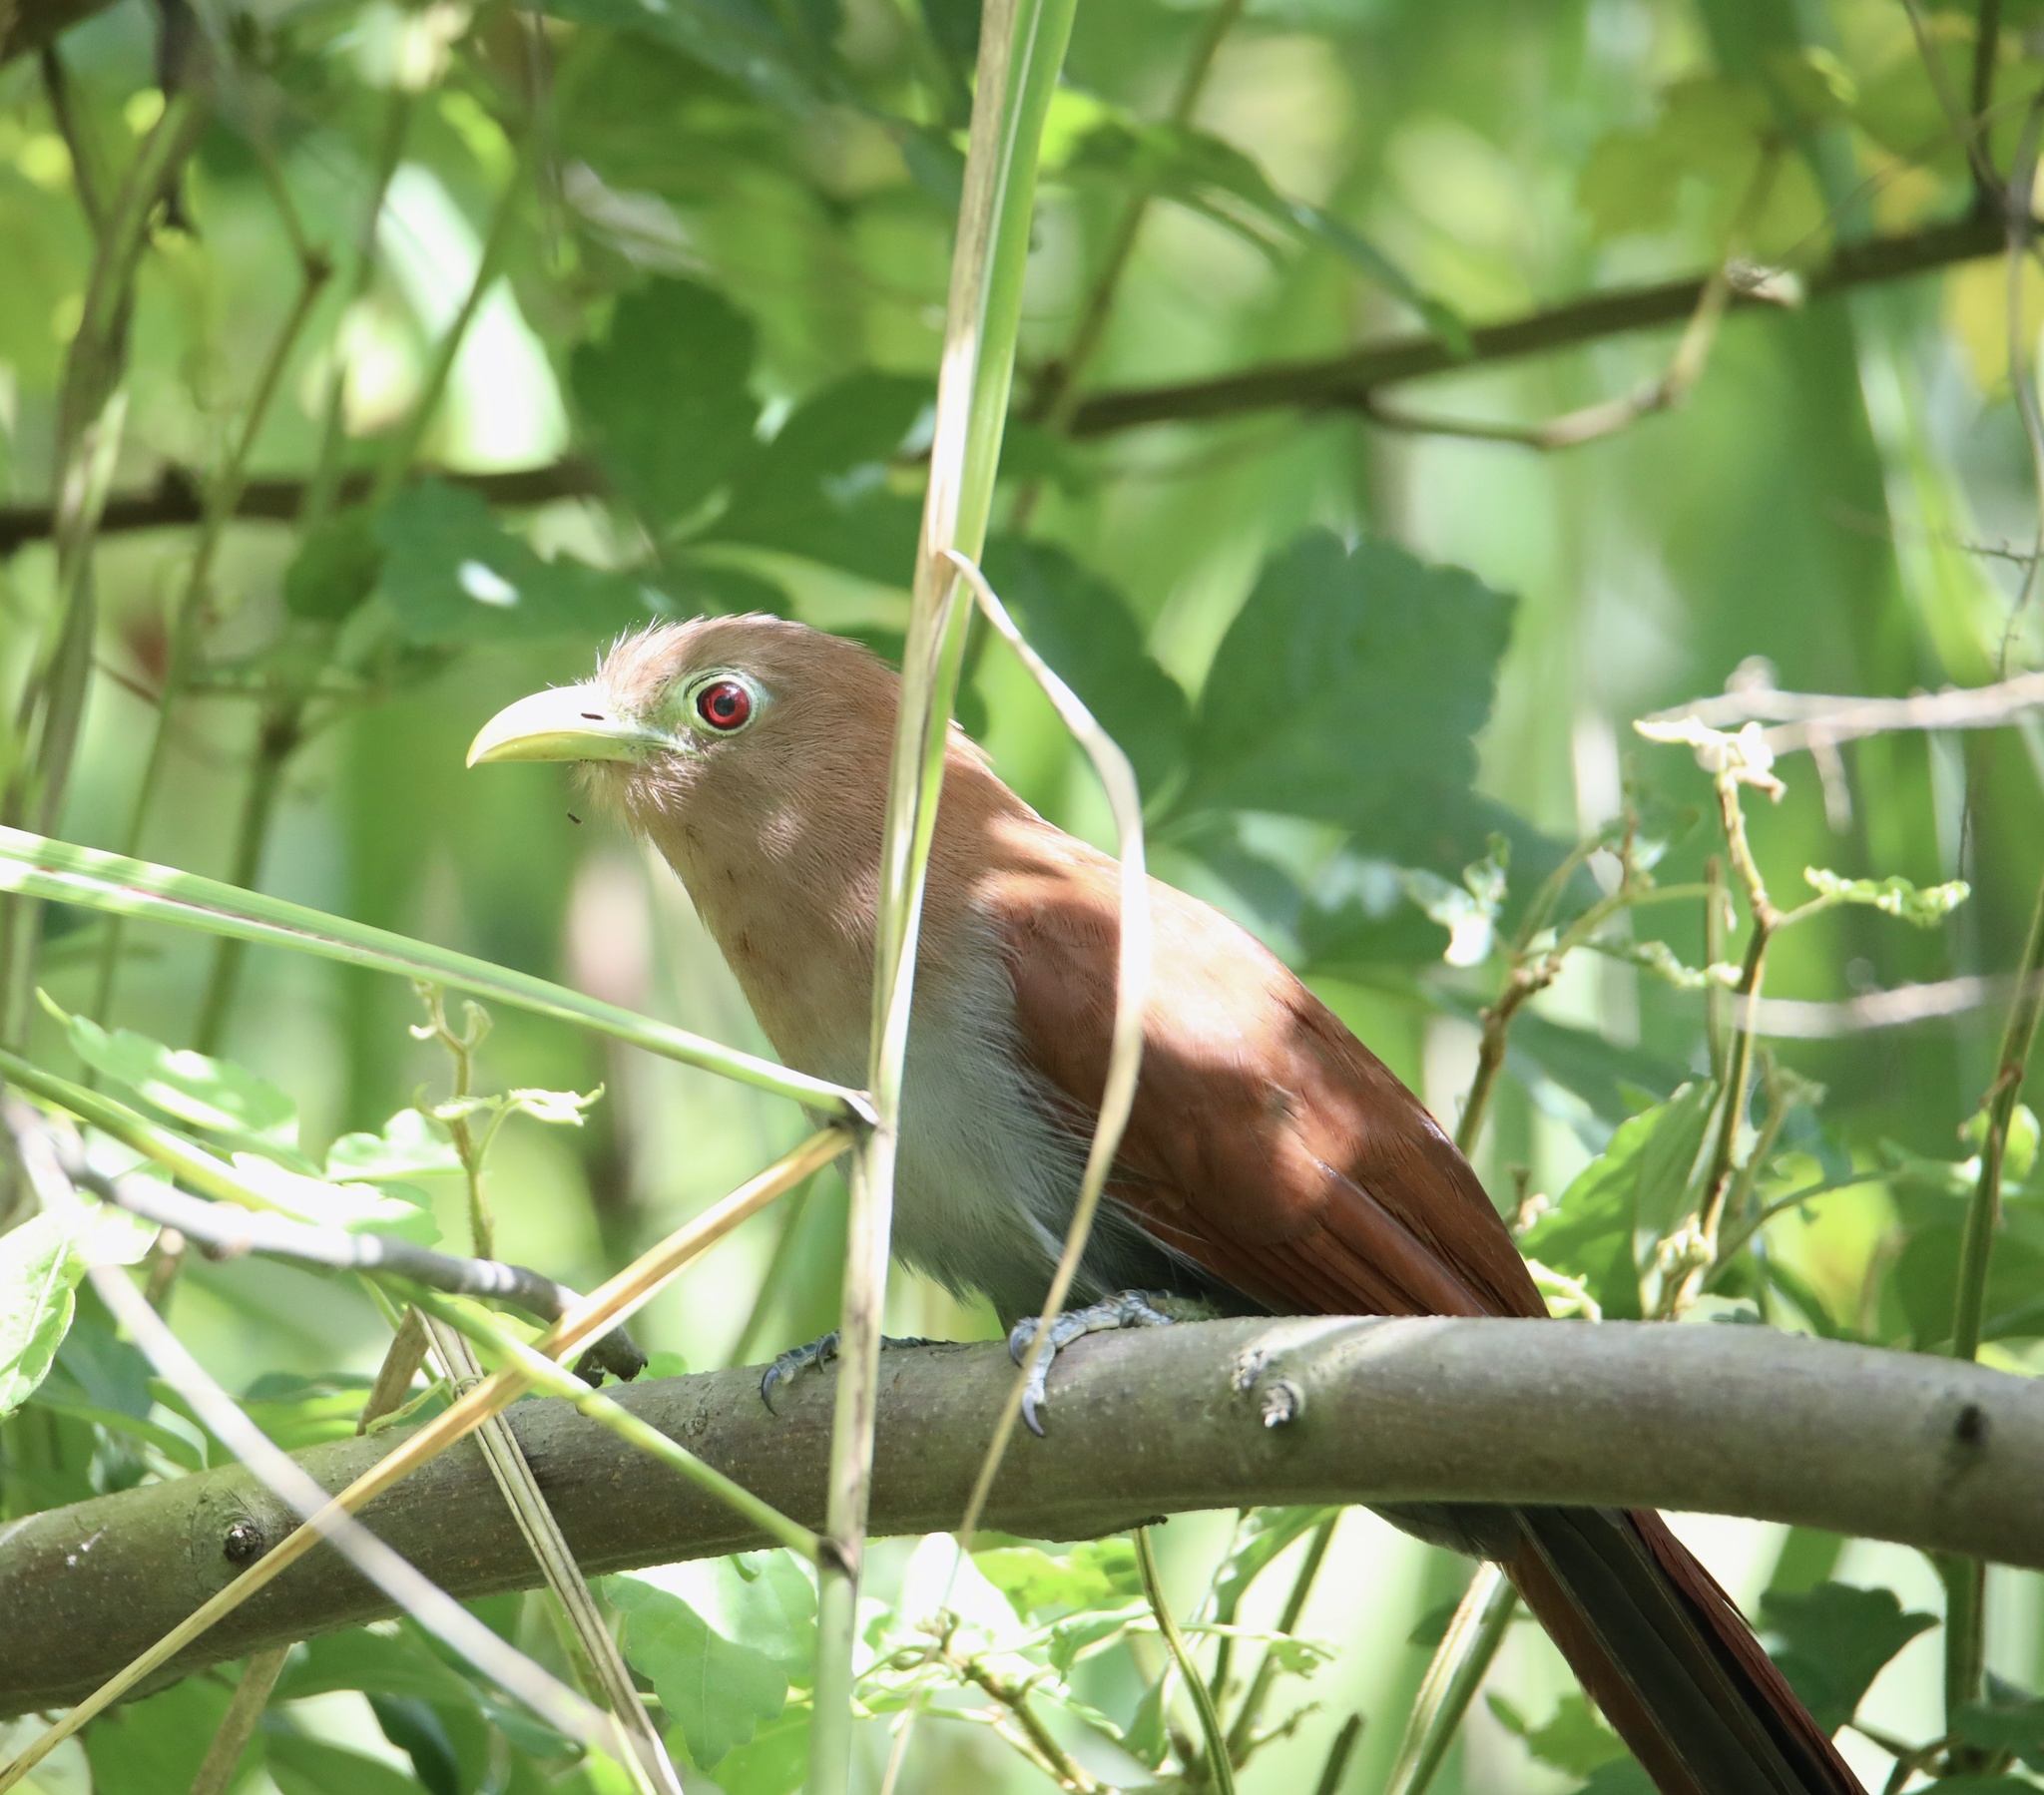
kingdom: Animalia
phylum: Chordata
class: Aves
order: Cuculiformes
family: Cuculidae
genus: Piaya
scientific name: Piaya cayana
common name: Squirrel cuckoo
